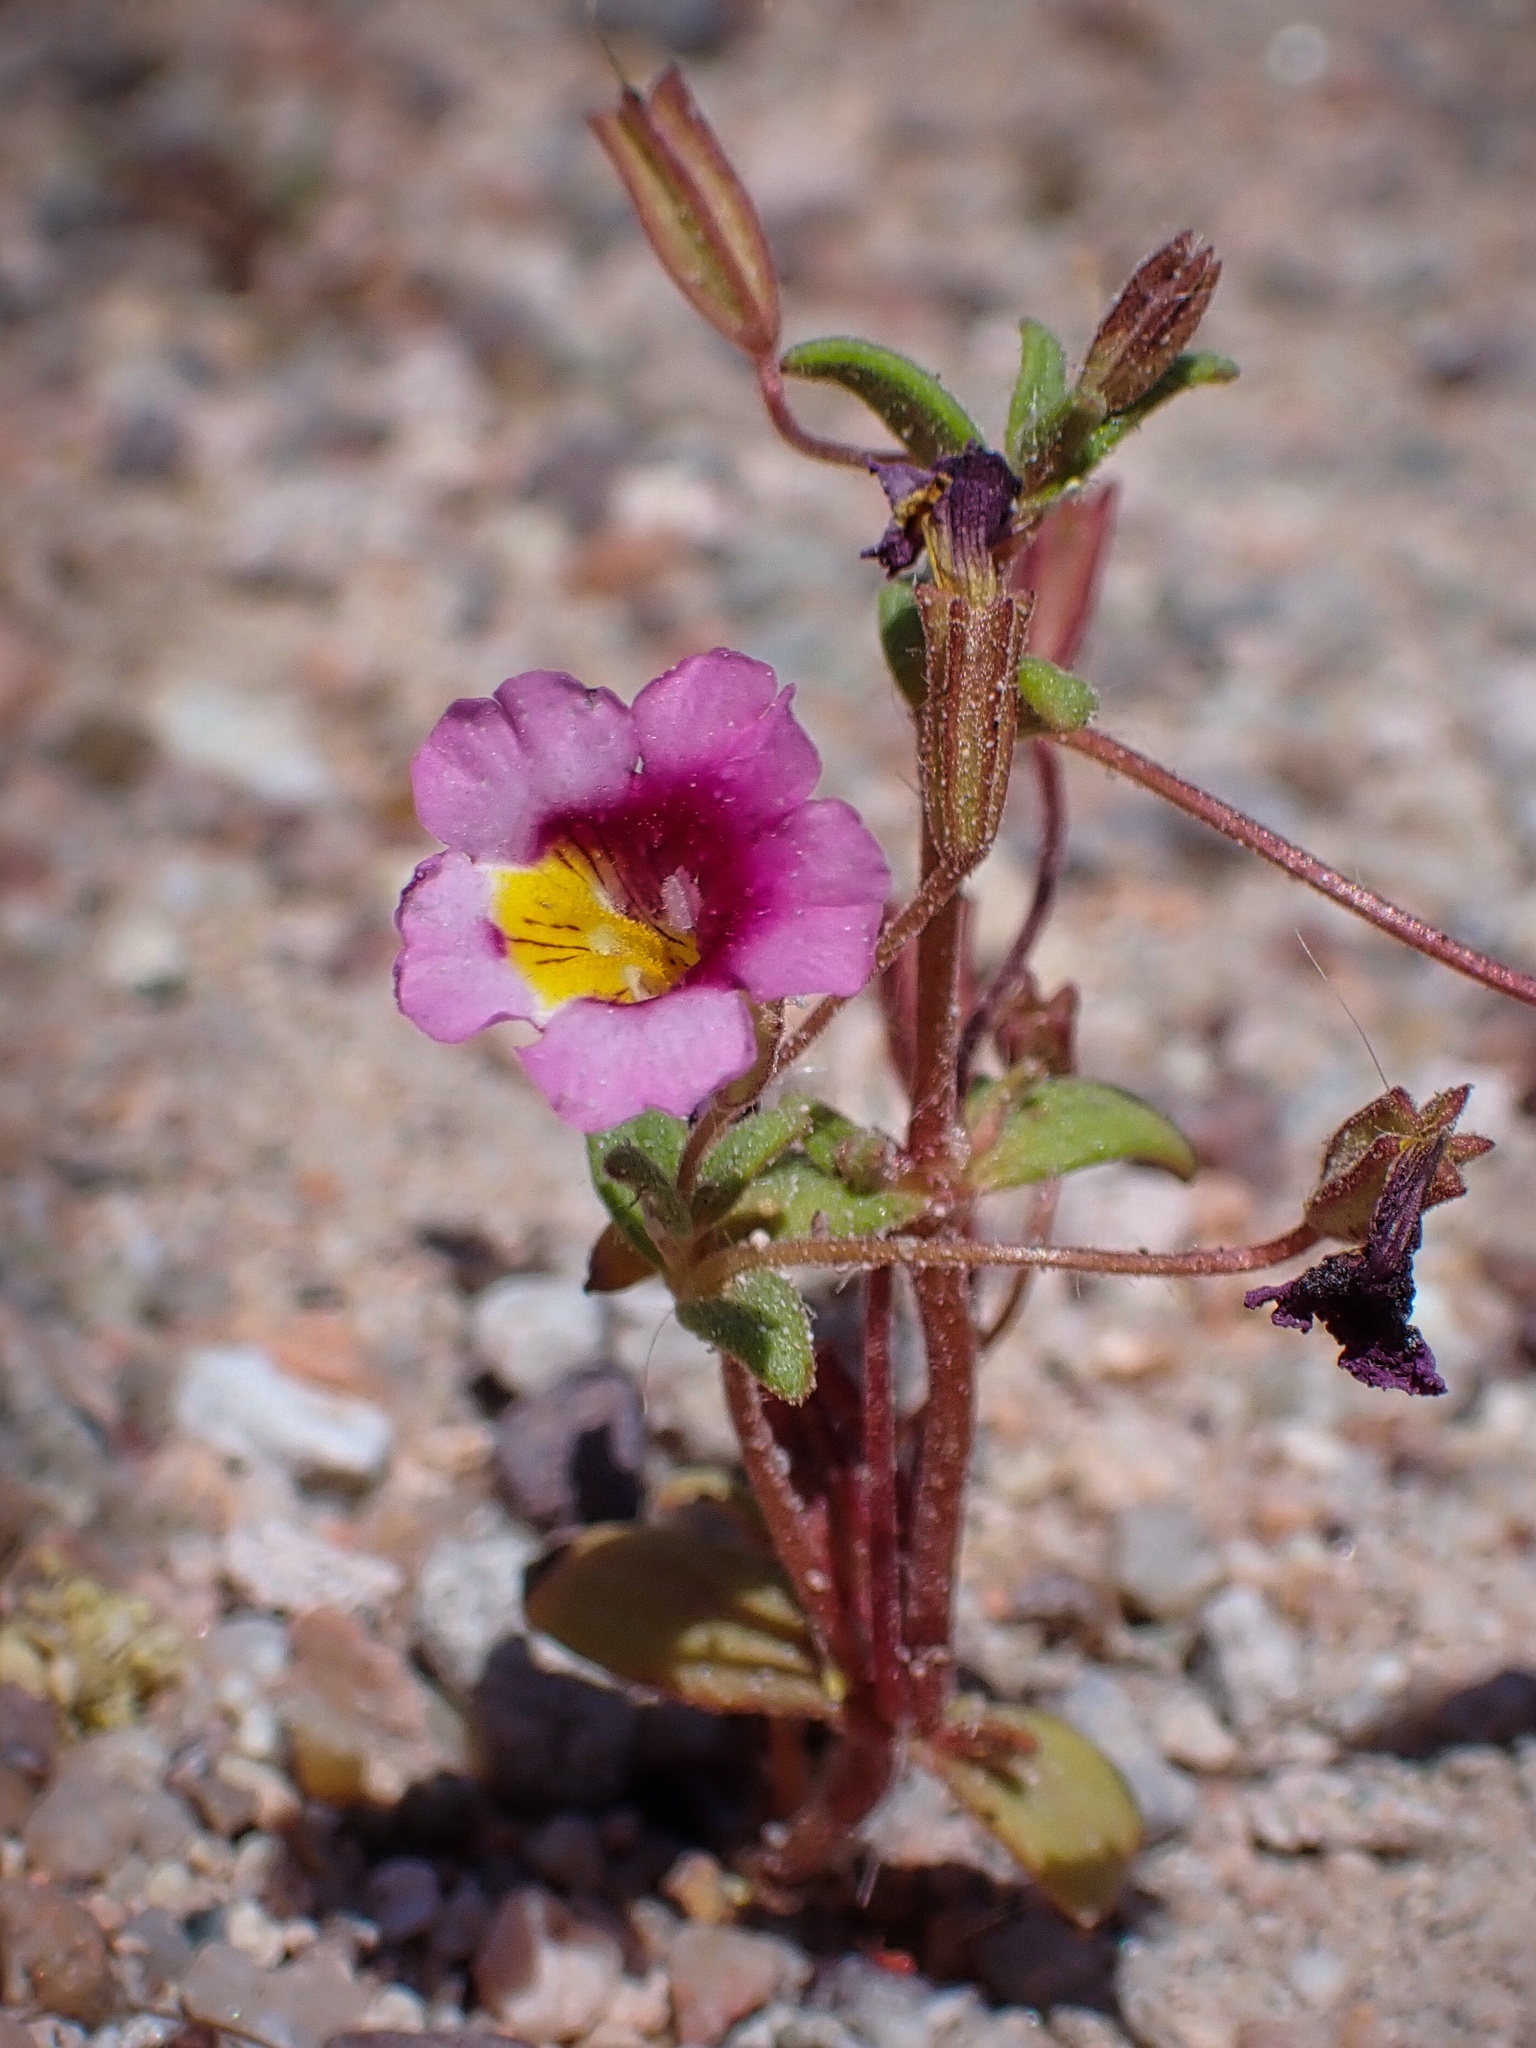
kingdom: Plantae
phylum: Tracheophyta
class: Magnoliopsida
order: Lamiales
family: Phrymaceae
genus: Erythranthe
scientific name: Erythranthe rhodopetra
